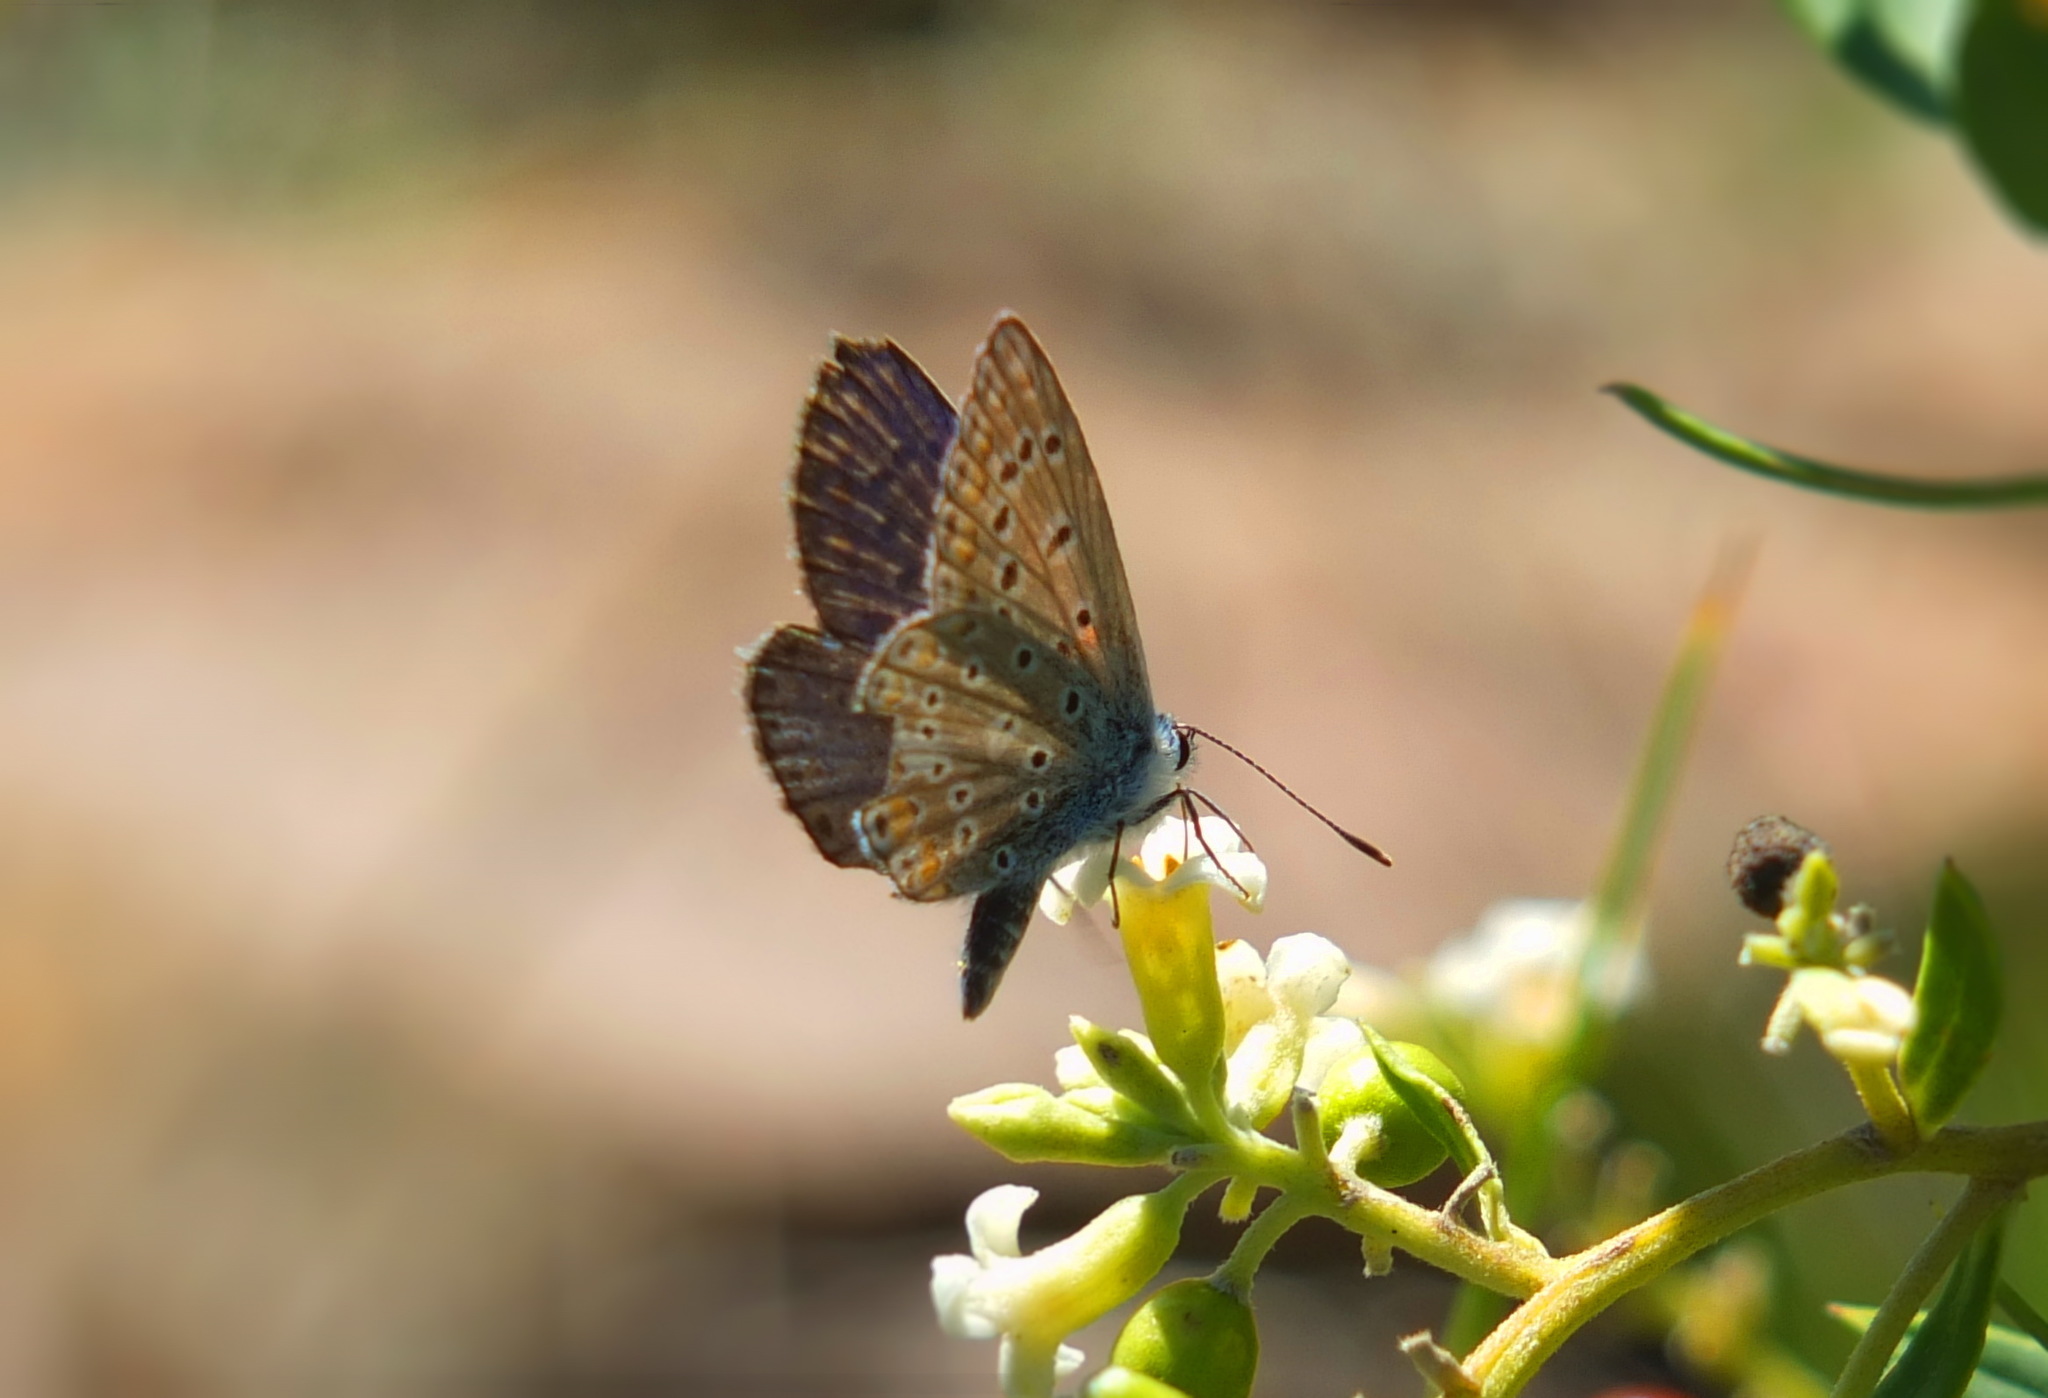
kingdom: Animalia
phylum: Arthropoda
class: Insecta
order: Lepidoptera
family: Lycaenidae
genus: Polyommatus
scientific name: Polyommatus celina
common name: Austaut's blue
